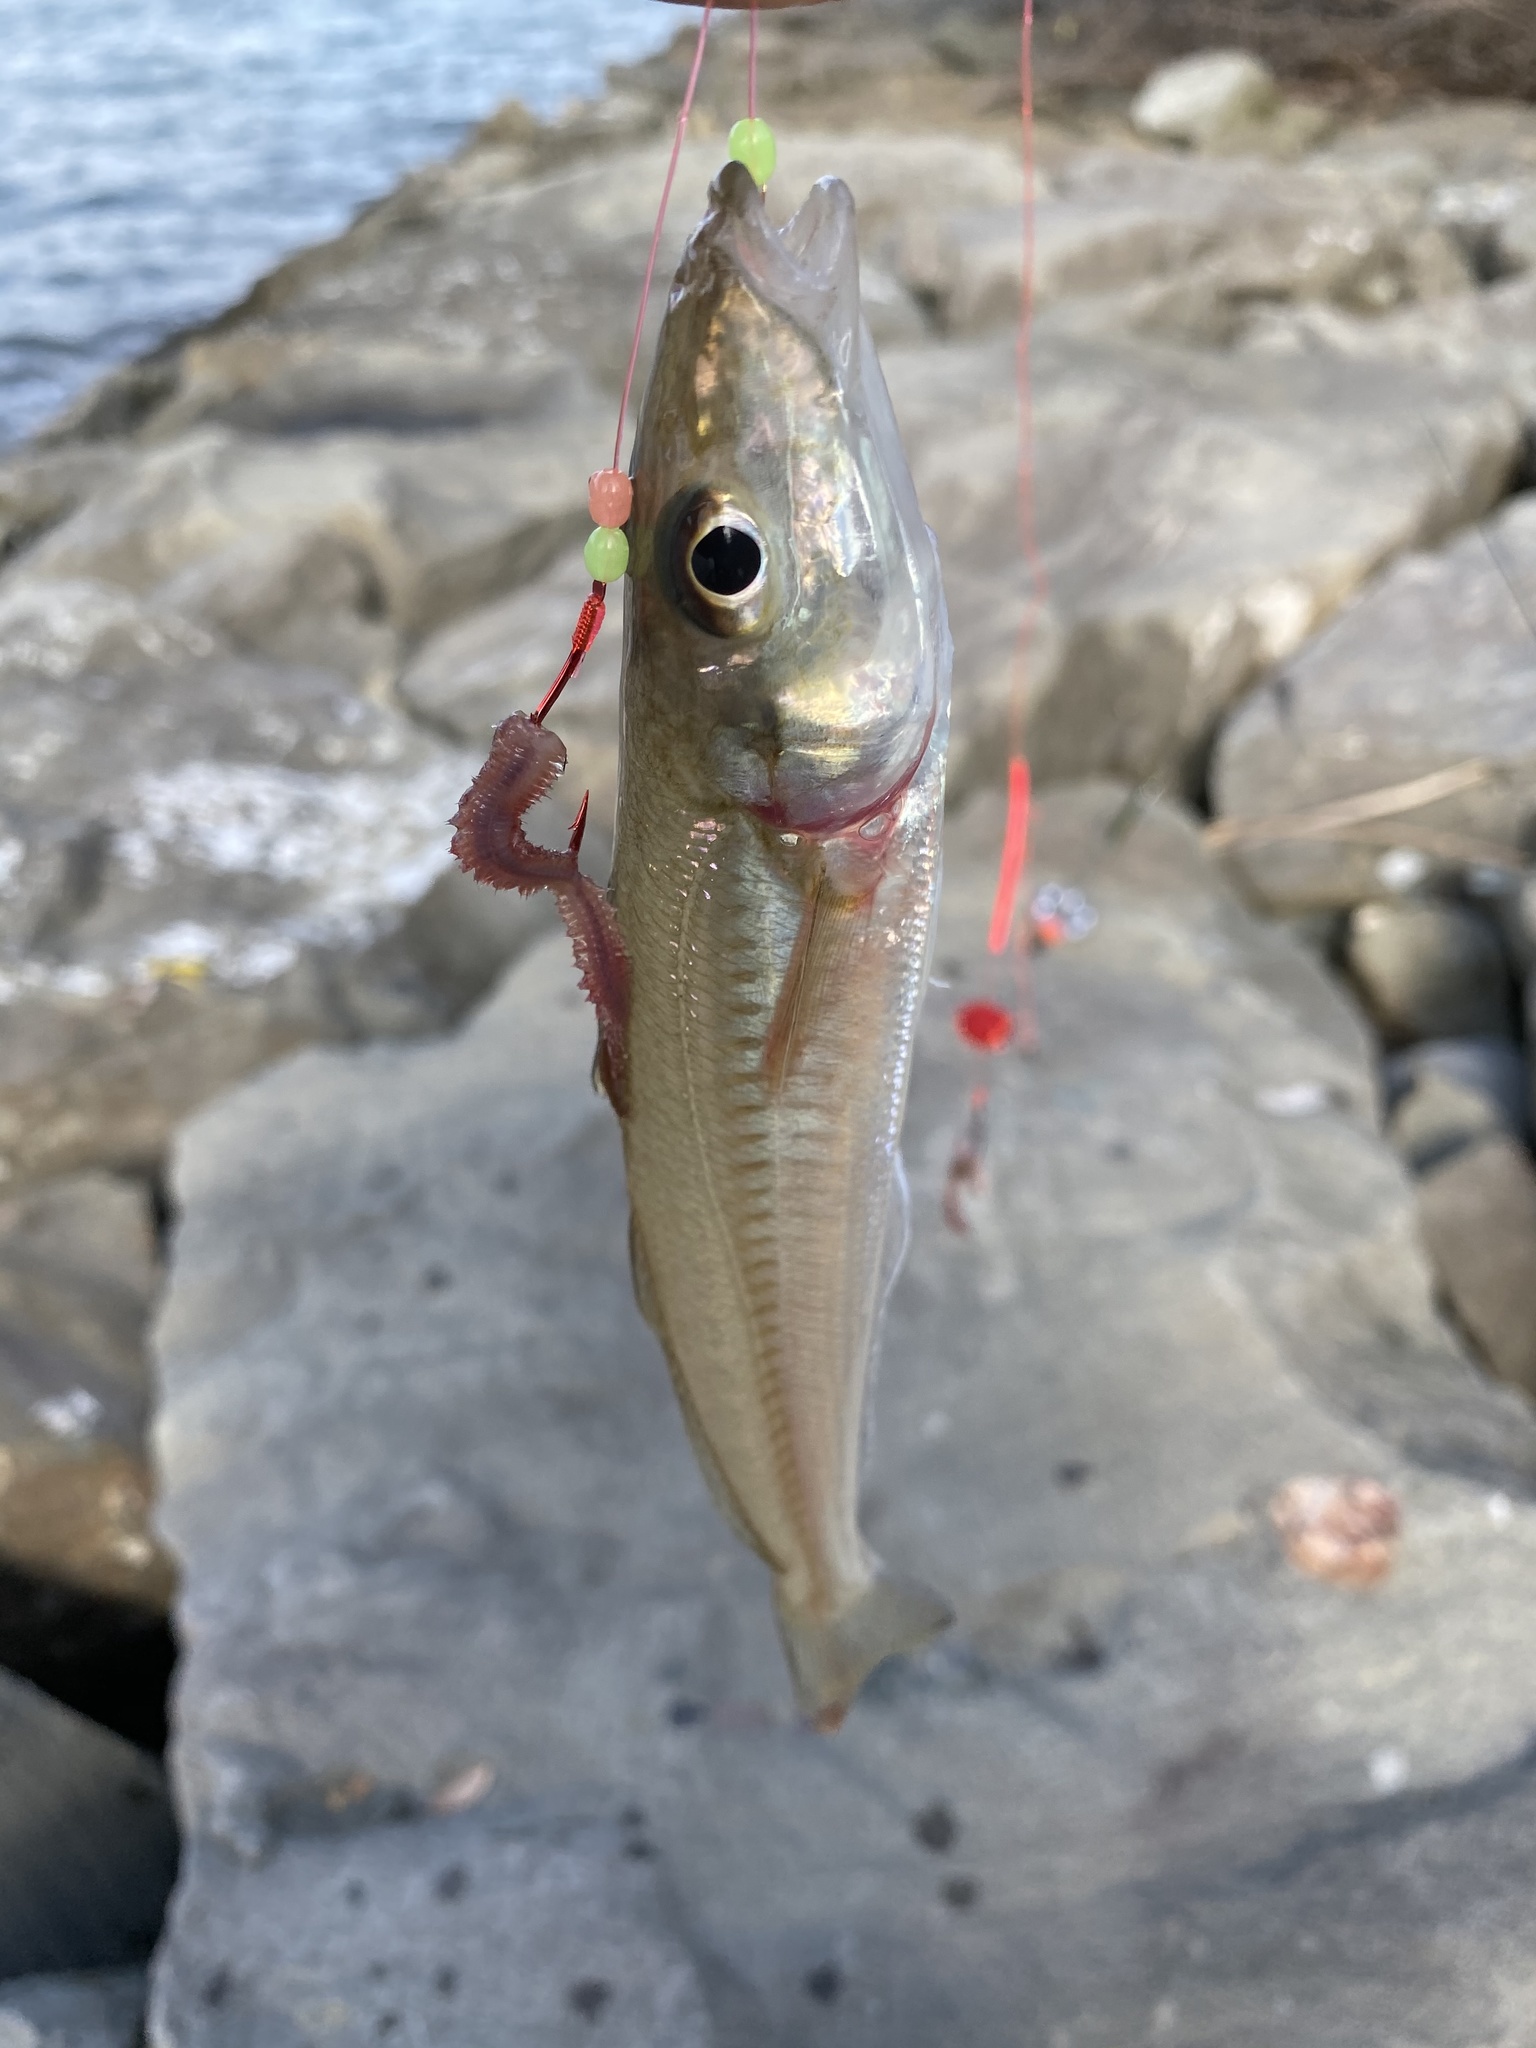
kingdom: Animalia
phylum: Chordata
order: Perciformes
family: Sillaginidae
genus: Sillago
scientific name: Sillago japonica
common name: Japanese sillago
